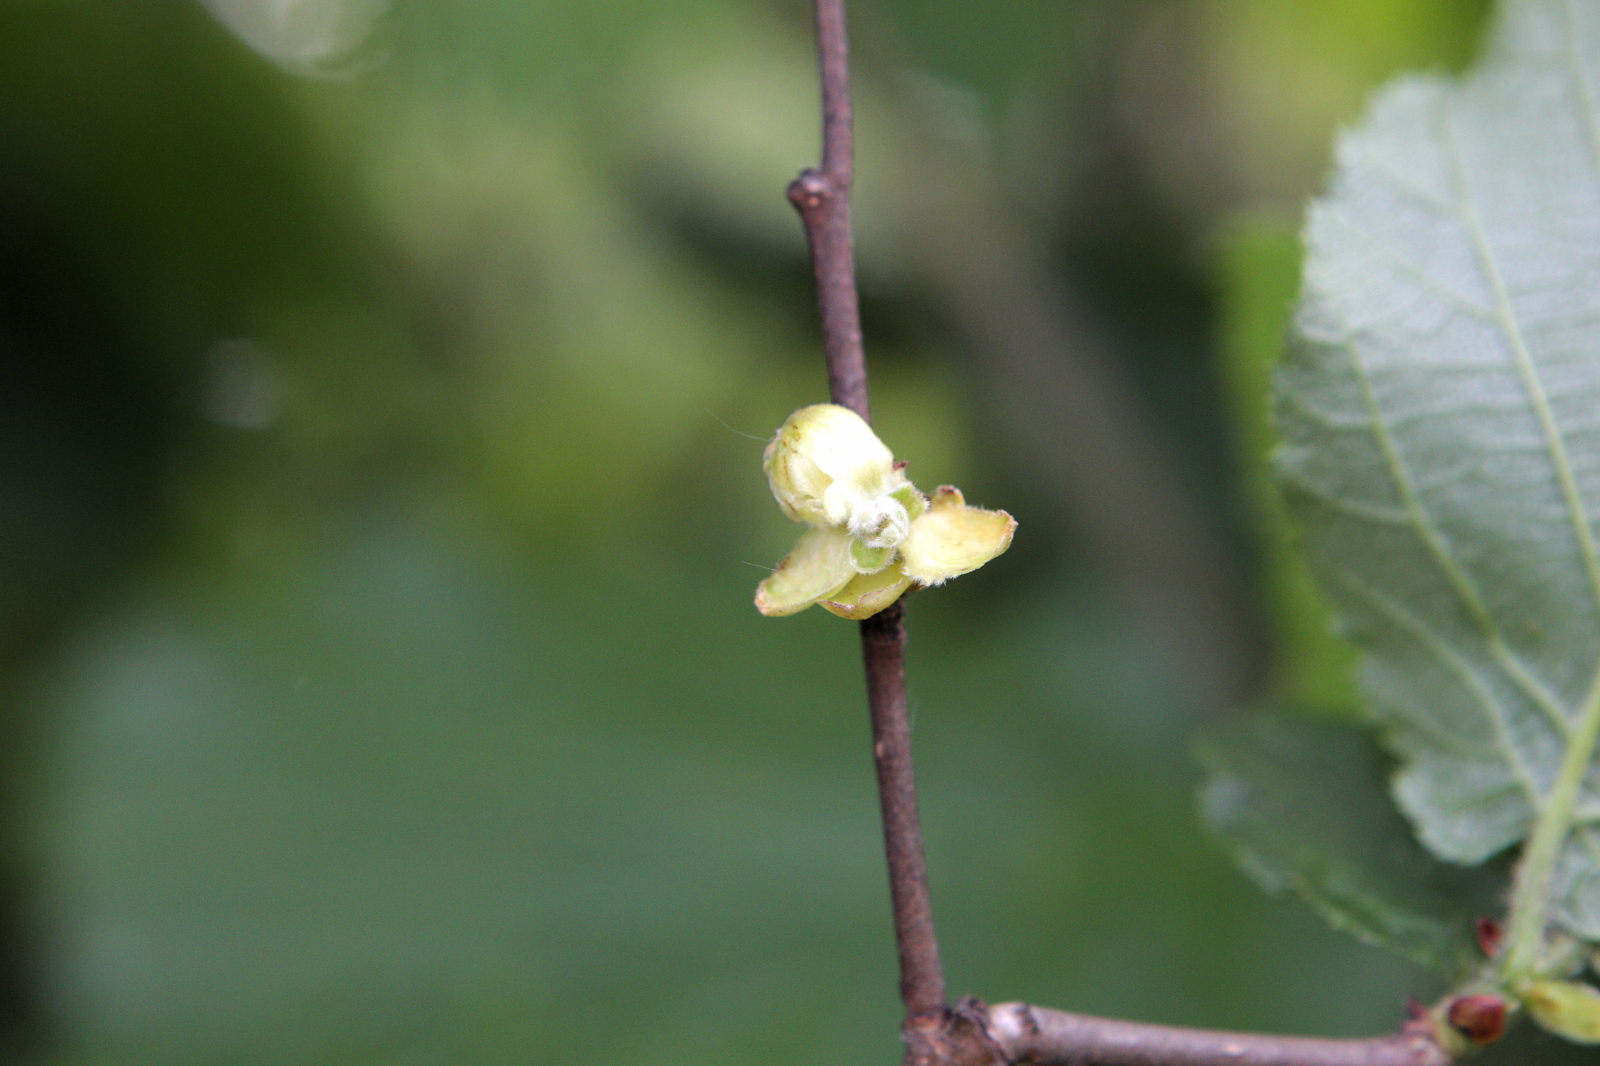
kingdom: Animalia
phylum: Arthropoda
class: Arachnida
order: Trombidiformes
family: Phytoptidae
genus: Phytoptus
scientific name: Phytoptus avellanae
